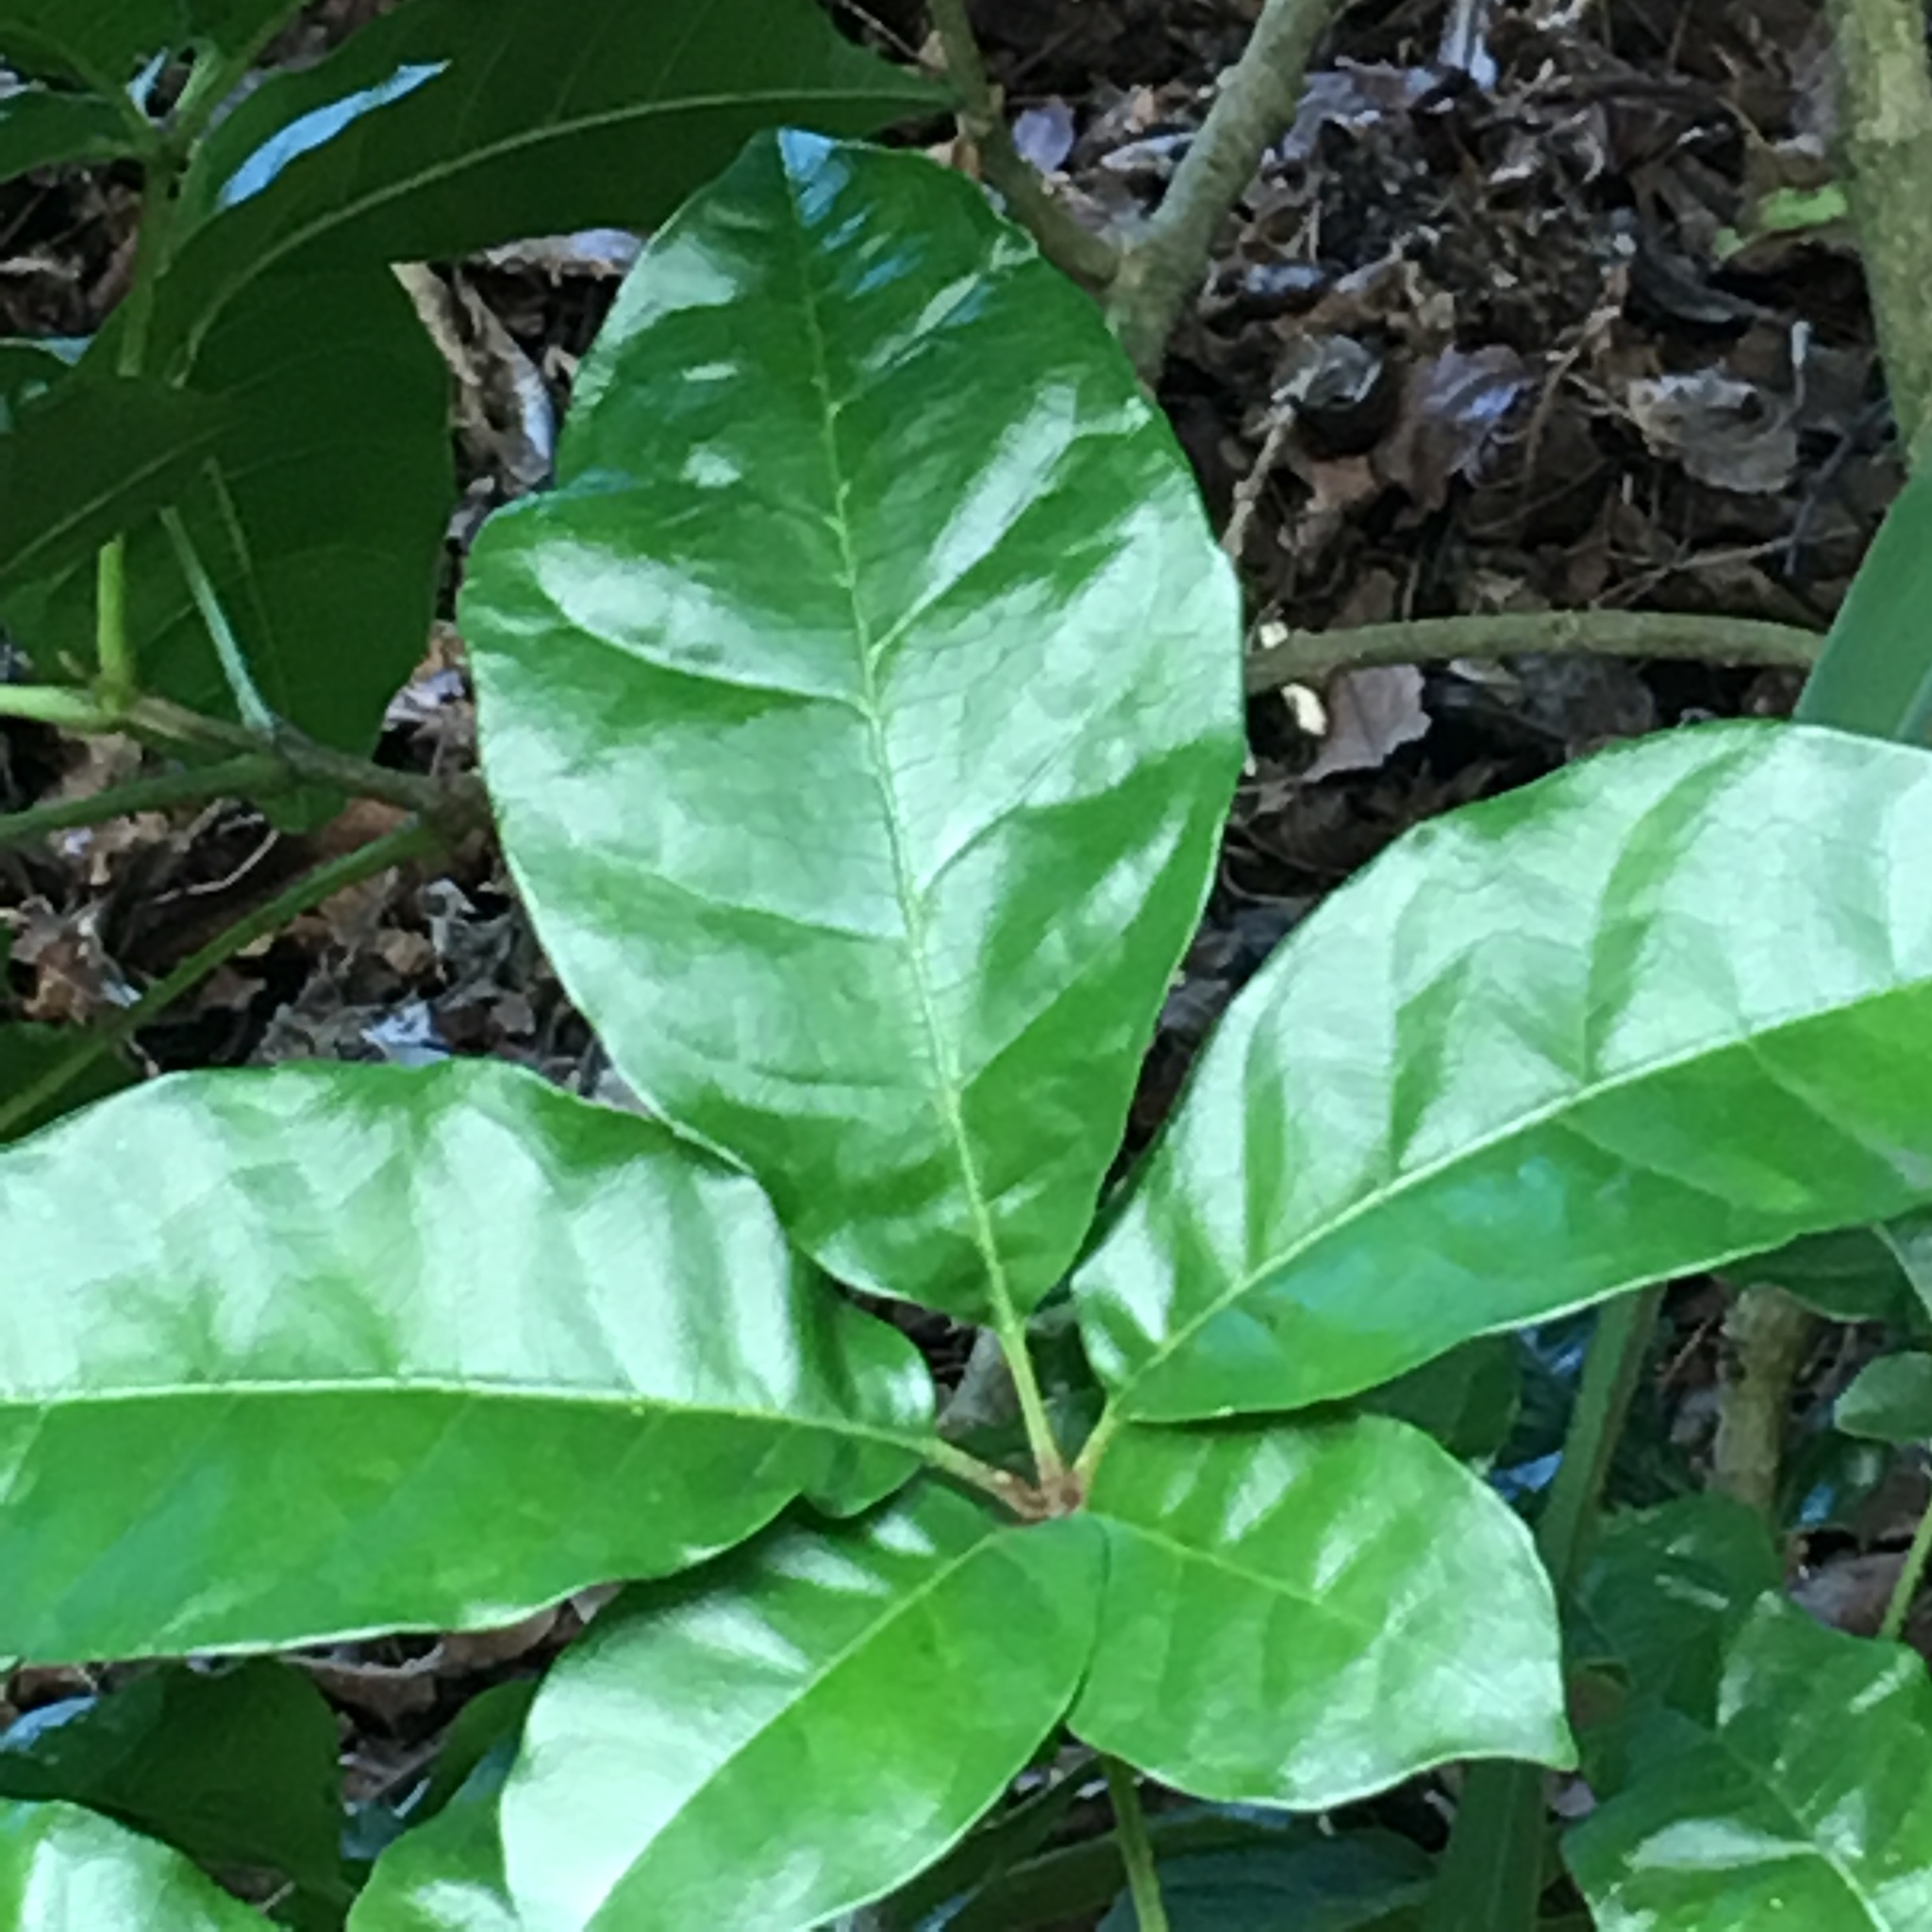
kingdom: Plantae
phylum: Tracheophyta
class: Magnoliopsida
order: Lamiales
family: Lamiaceae
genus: Vitex
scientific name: Vitex lucens
